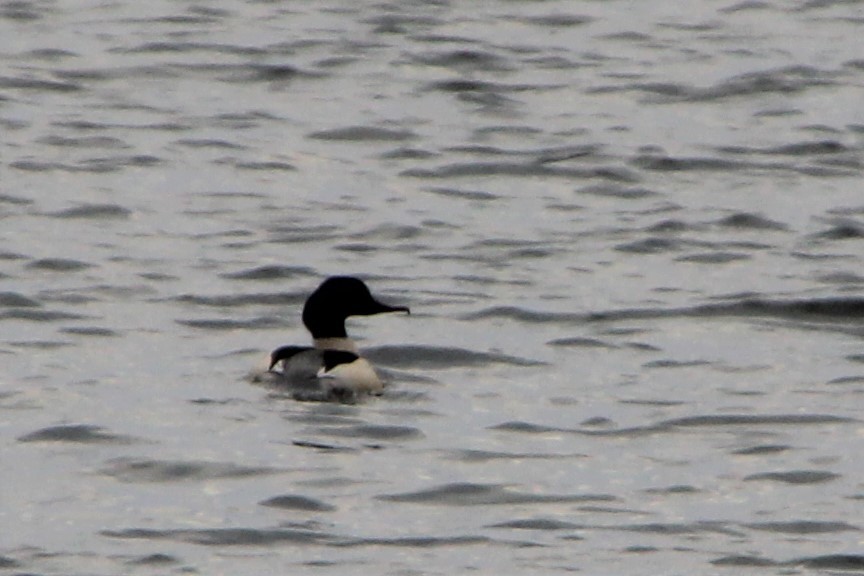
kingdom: Animalia
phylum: Chordata
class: Aves
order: Anseriformes
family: Anatidae
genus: Mergus
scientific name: Mergus merganser
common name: Common merganser
